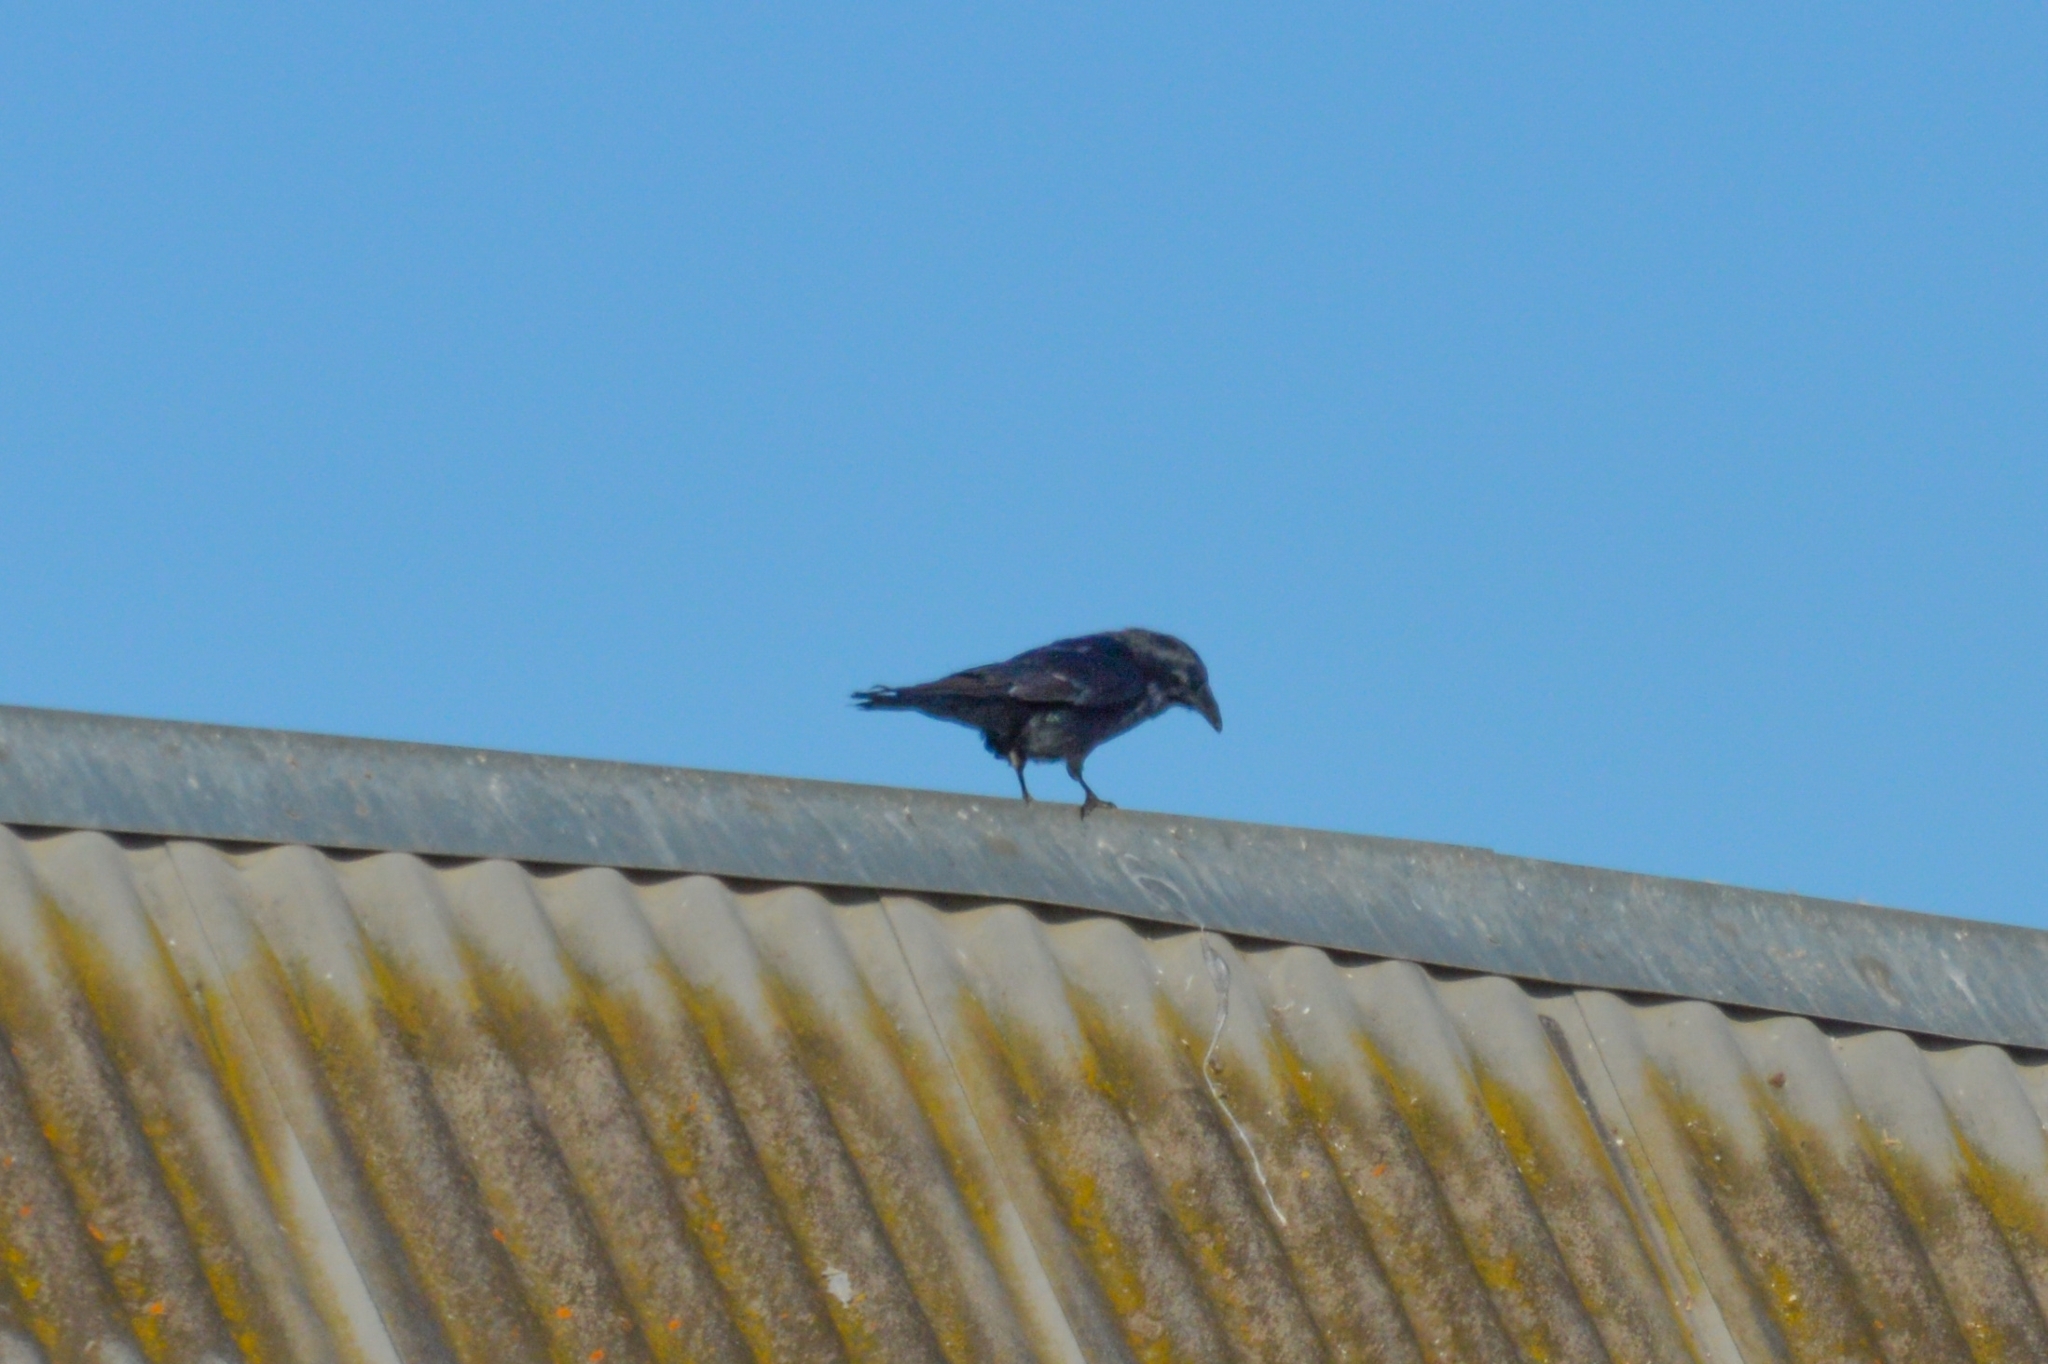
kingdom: Animalia
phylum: Chordata
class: Aves
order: Passeriformes
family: Corvidae
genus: Corvus
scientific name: Corvus corax
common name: Common raven
